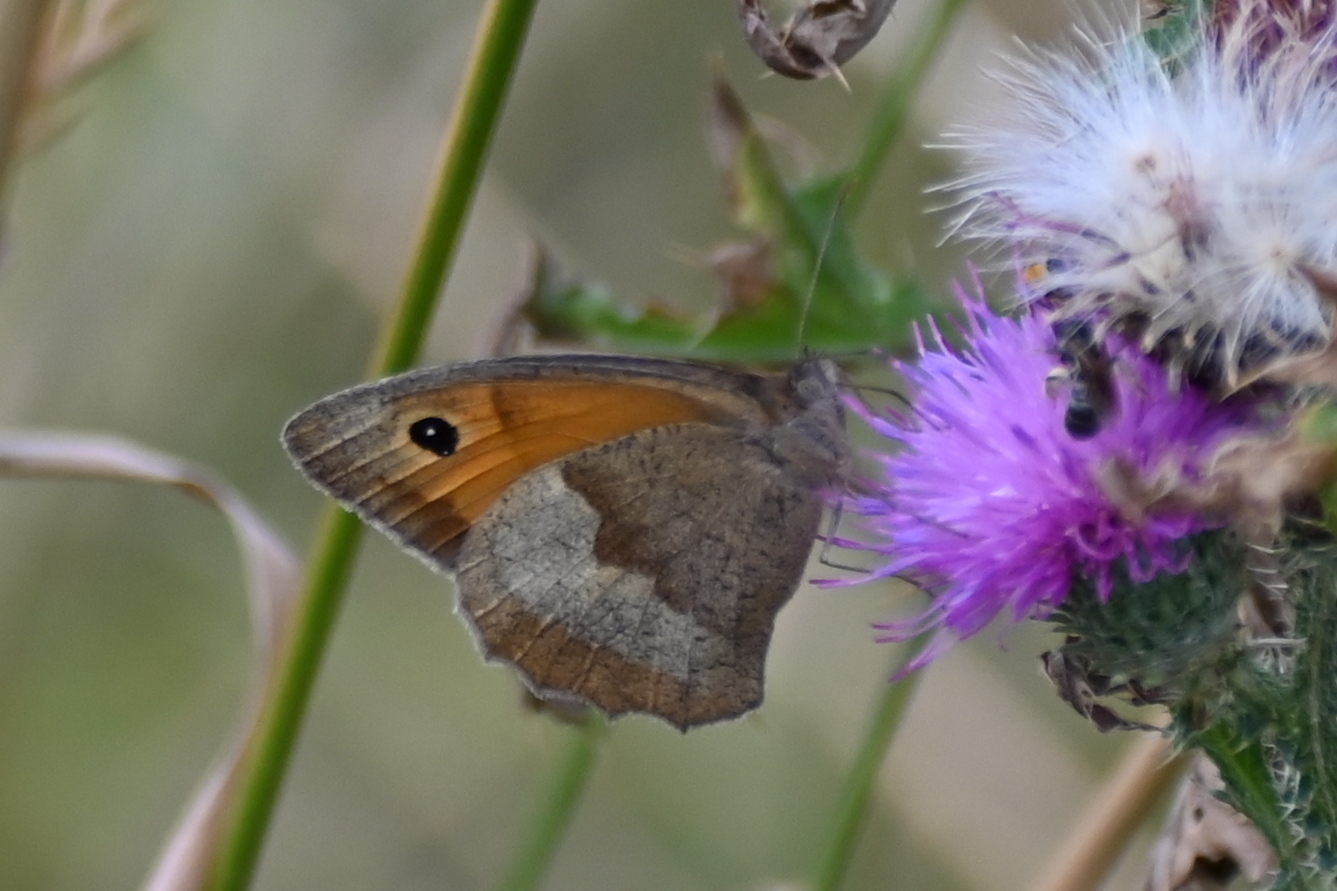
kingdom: Animalia
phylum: Arthropoda
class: Insecta
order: Lepidoptera
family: Nymphalidae
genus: Maniola
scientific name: Maniola jurtina
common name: Meadow brown
